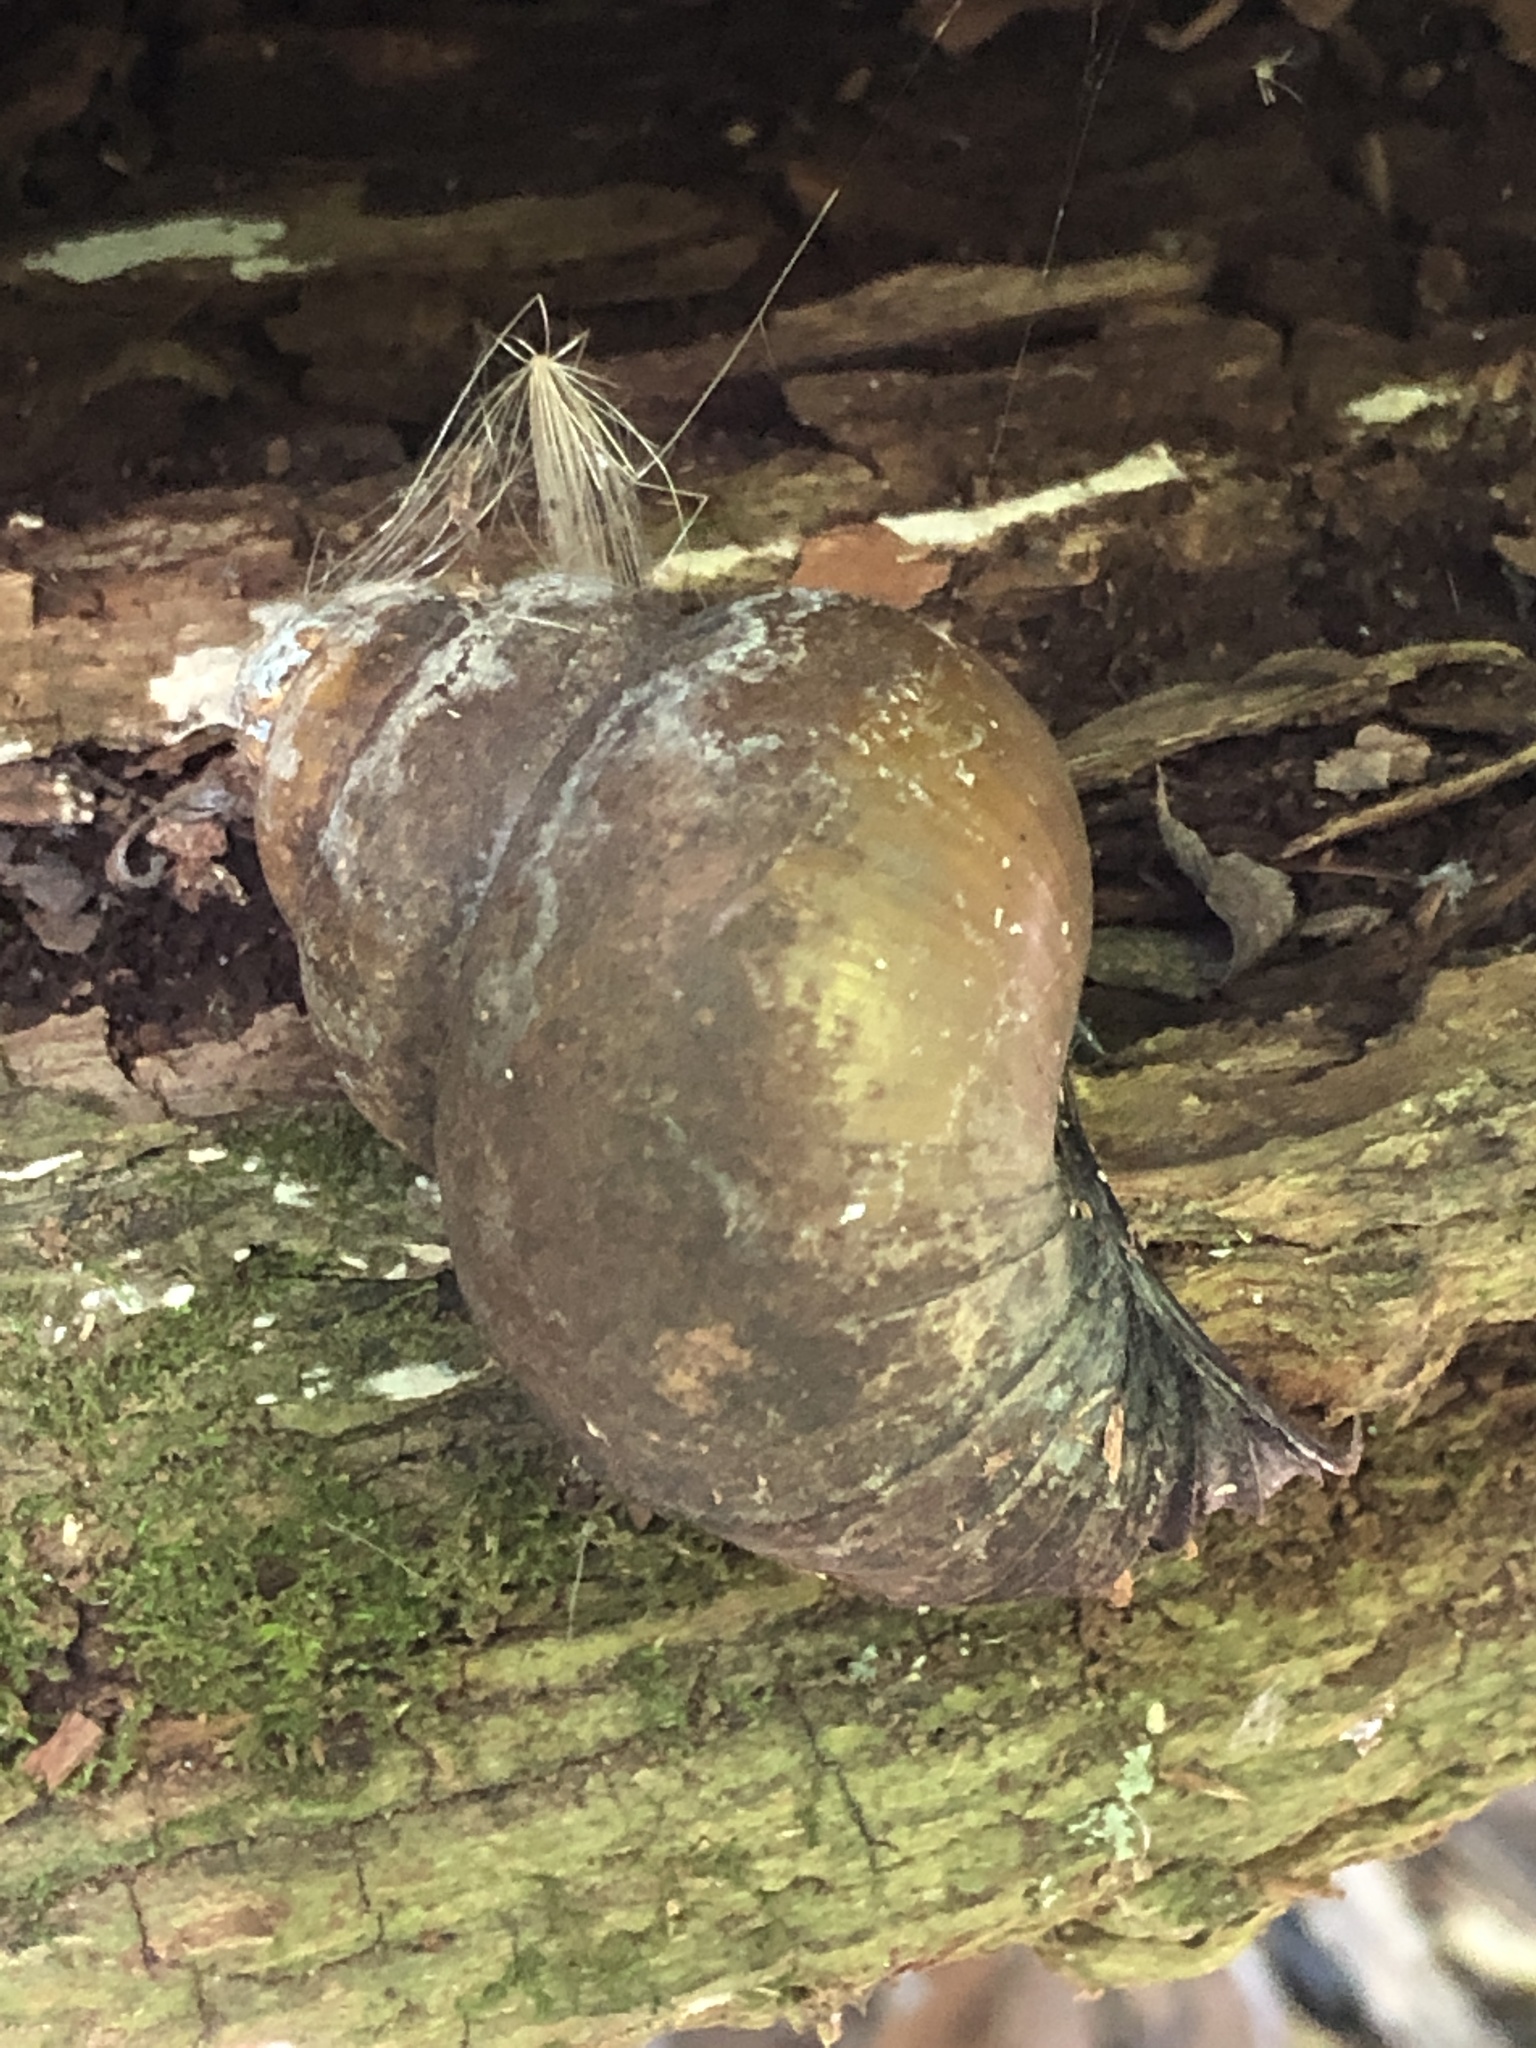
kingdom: Animalia
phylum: Mollusca
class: Gastropoda
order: Architaenioglossa
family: Viviparidae
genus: Cipangopaludina
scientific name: Cipangopaludina chinensis
